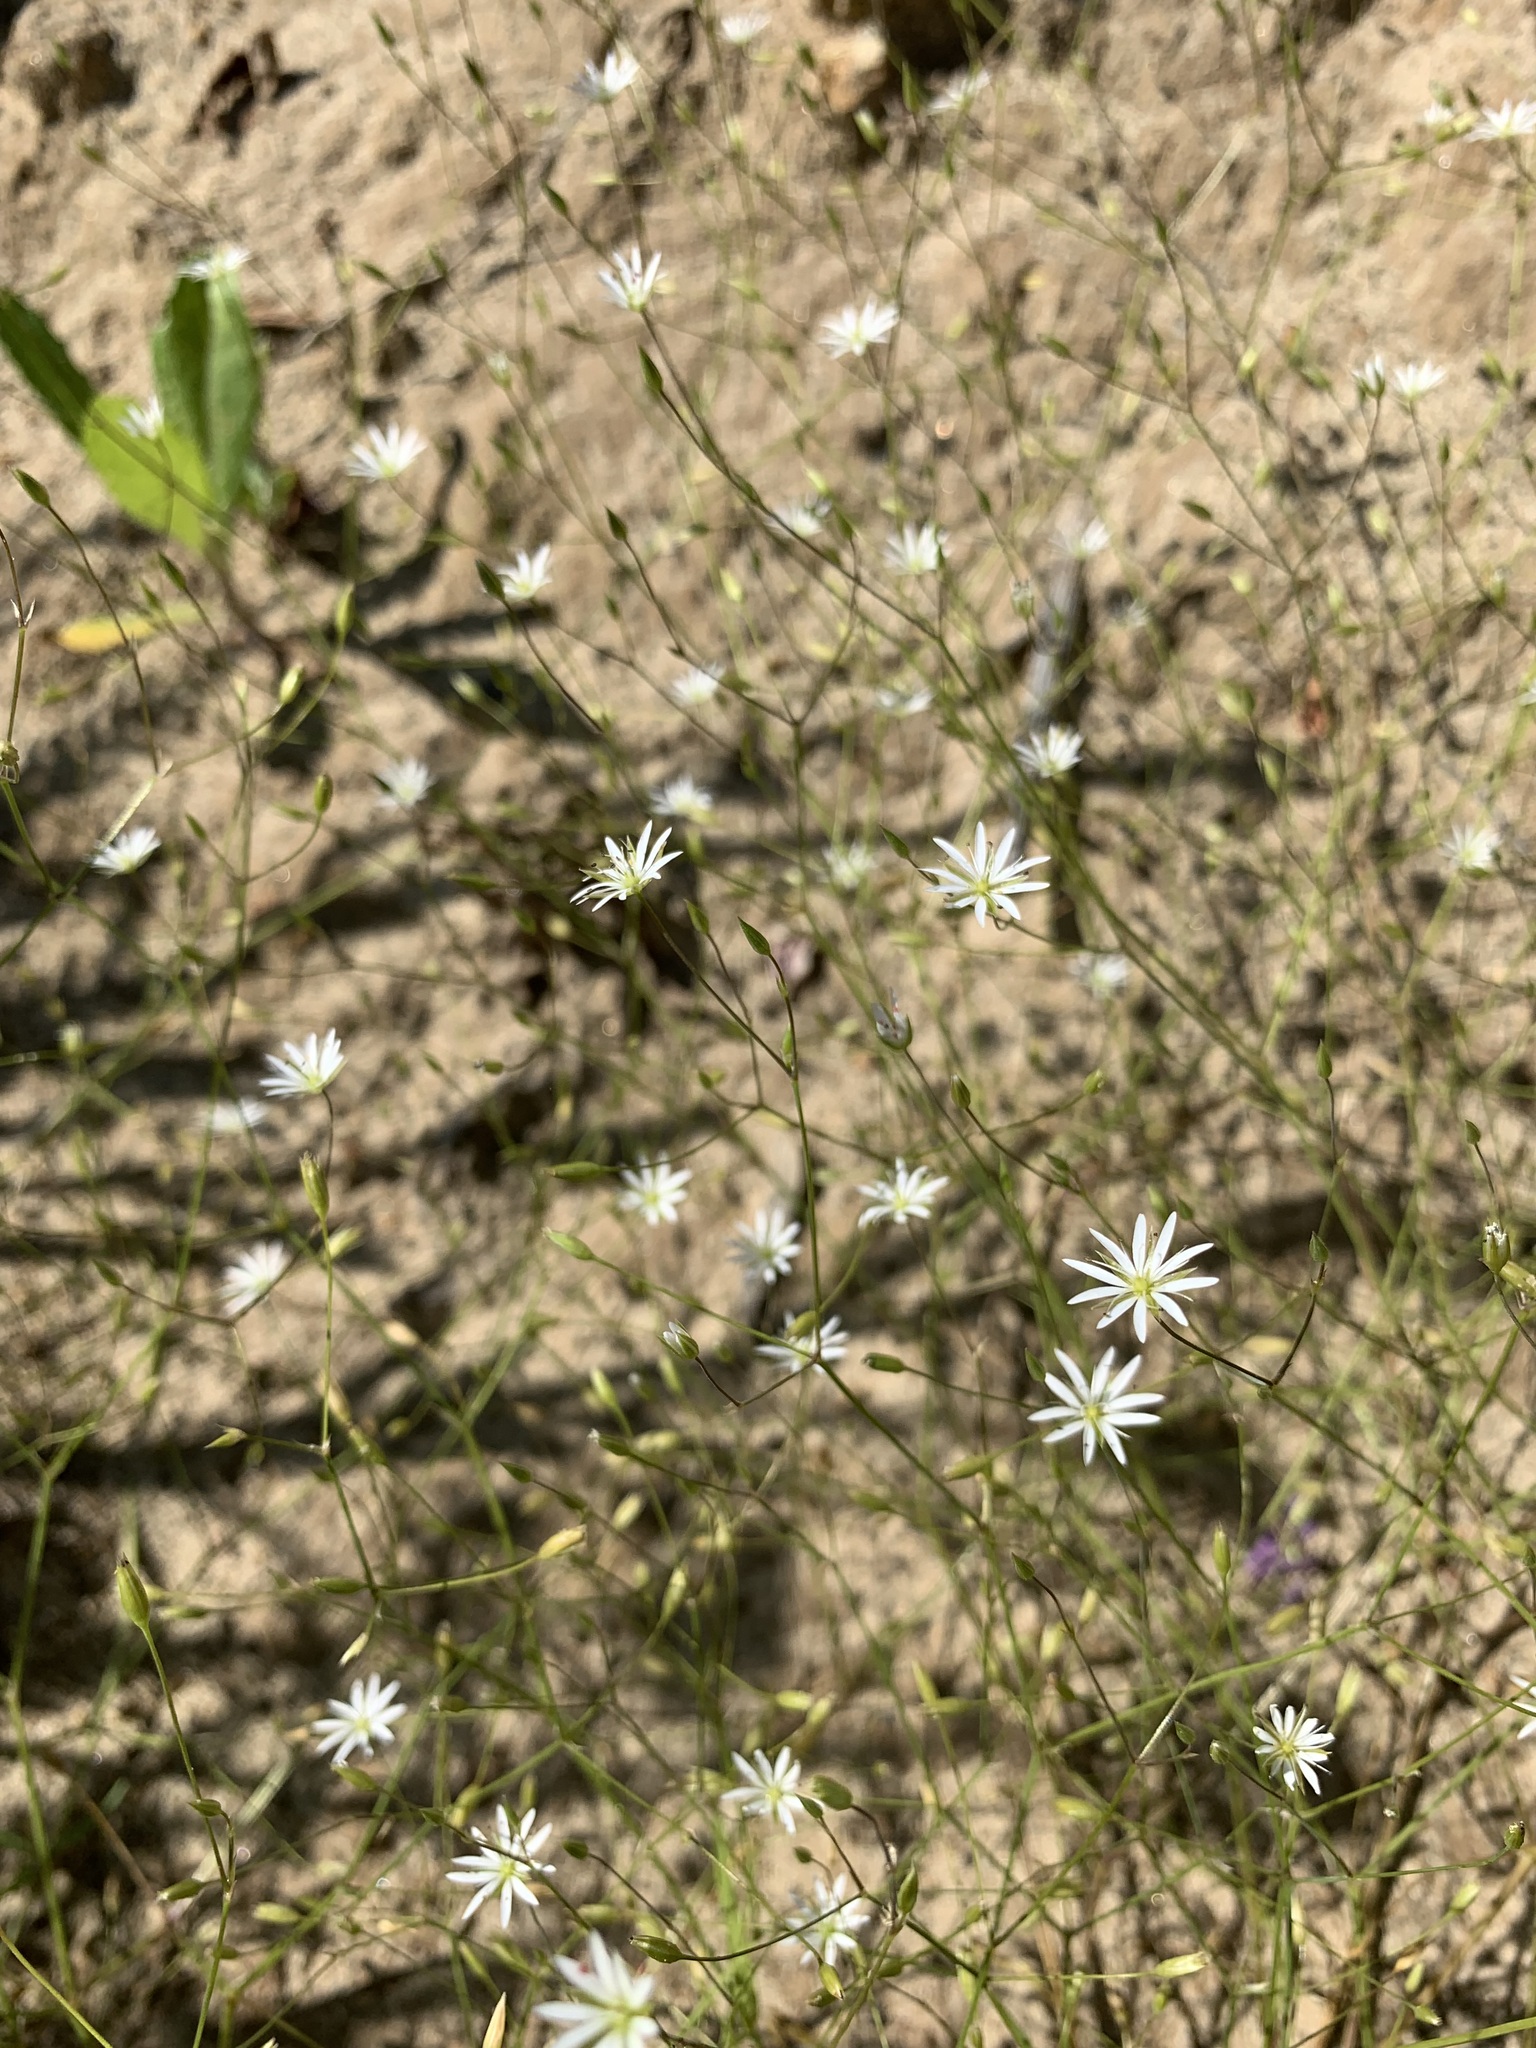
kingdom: Plantae
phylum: Tracheophyta
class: Magnoliopsida
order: Caryophyllales
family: Caryophyllaceae
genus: Stellaria
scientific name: Stellaria graminea
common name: Grass-like starwort
